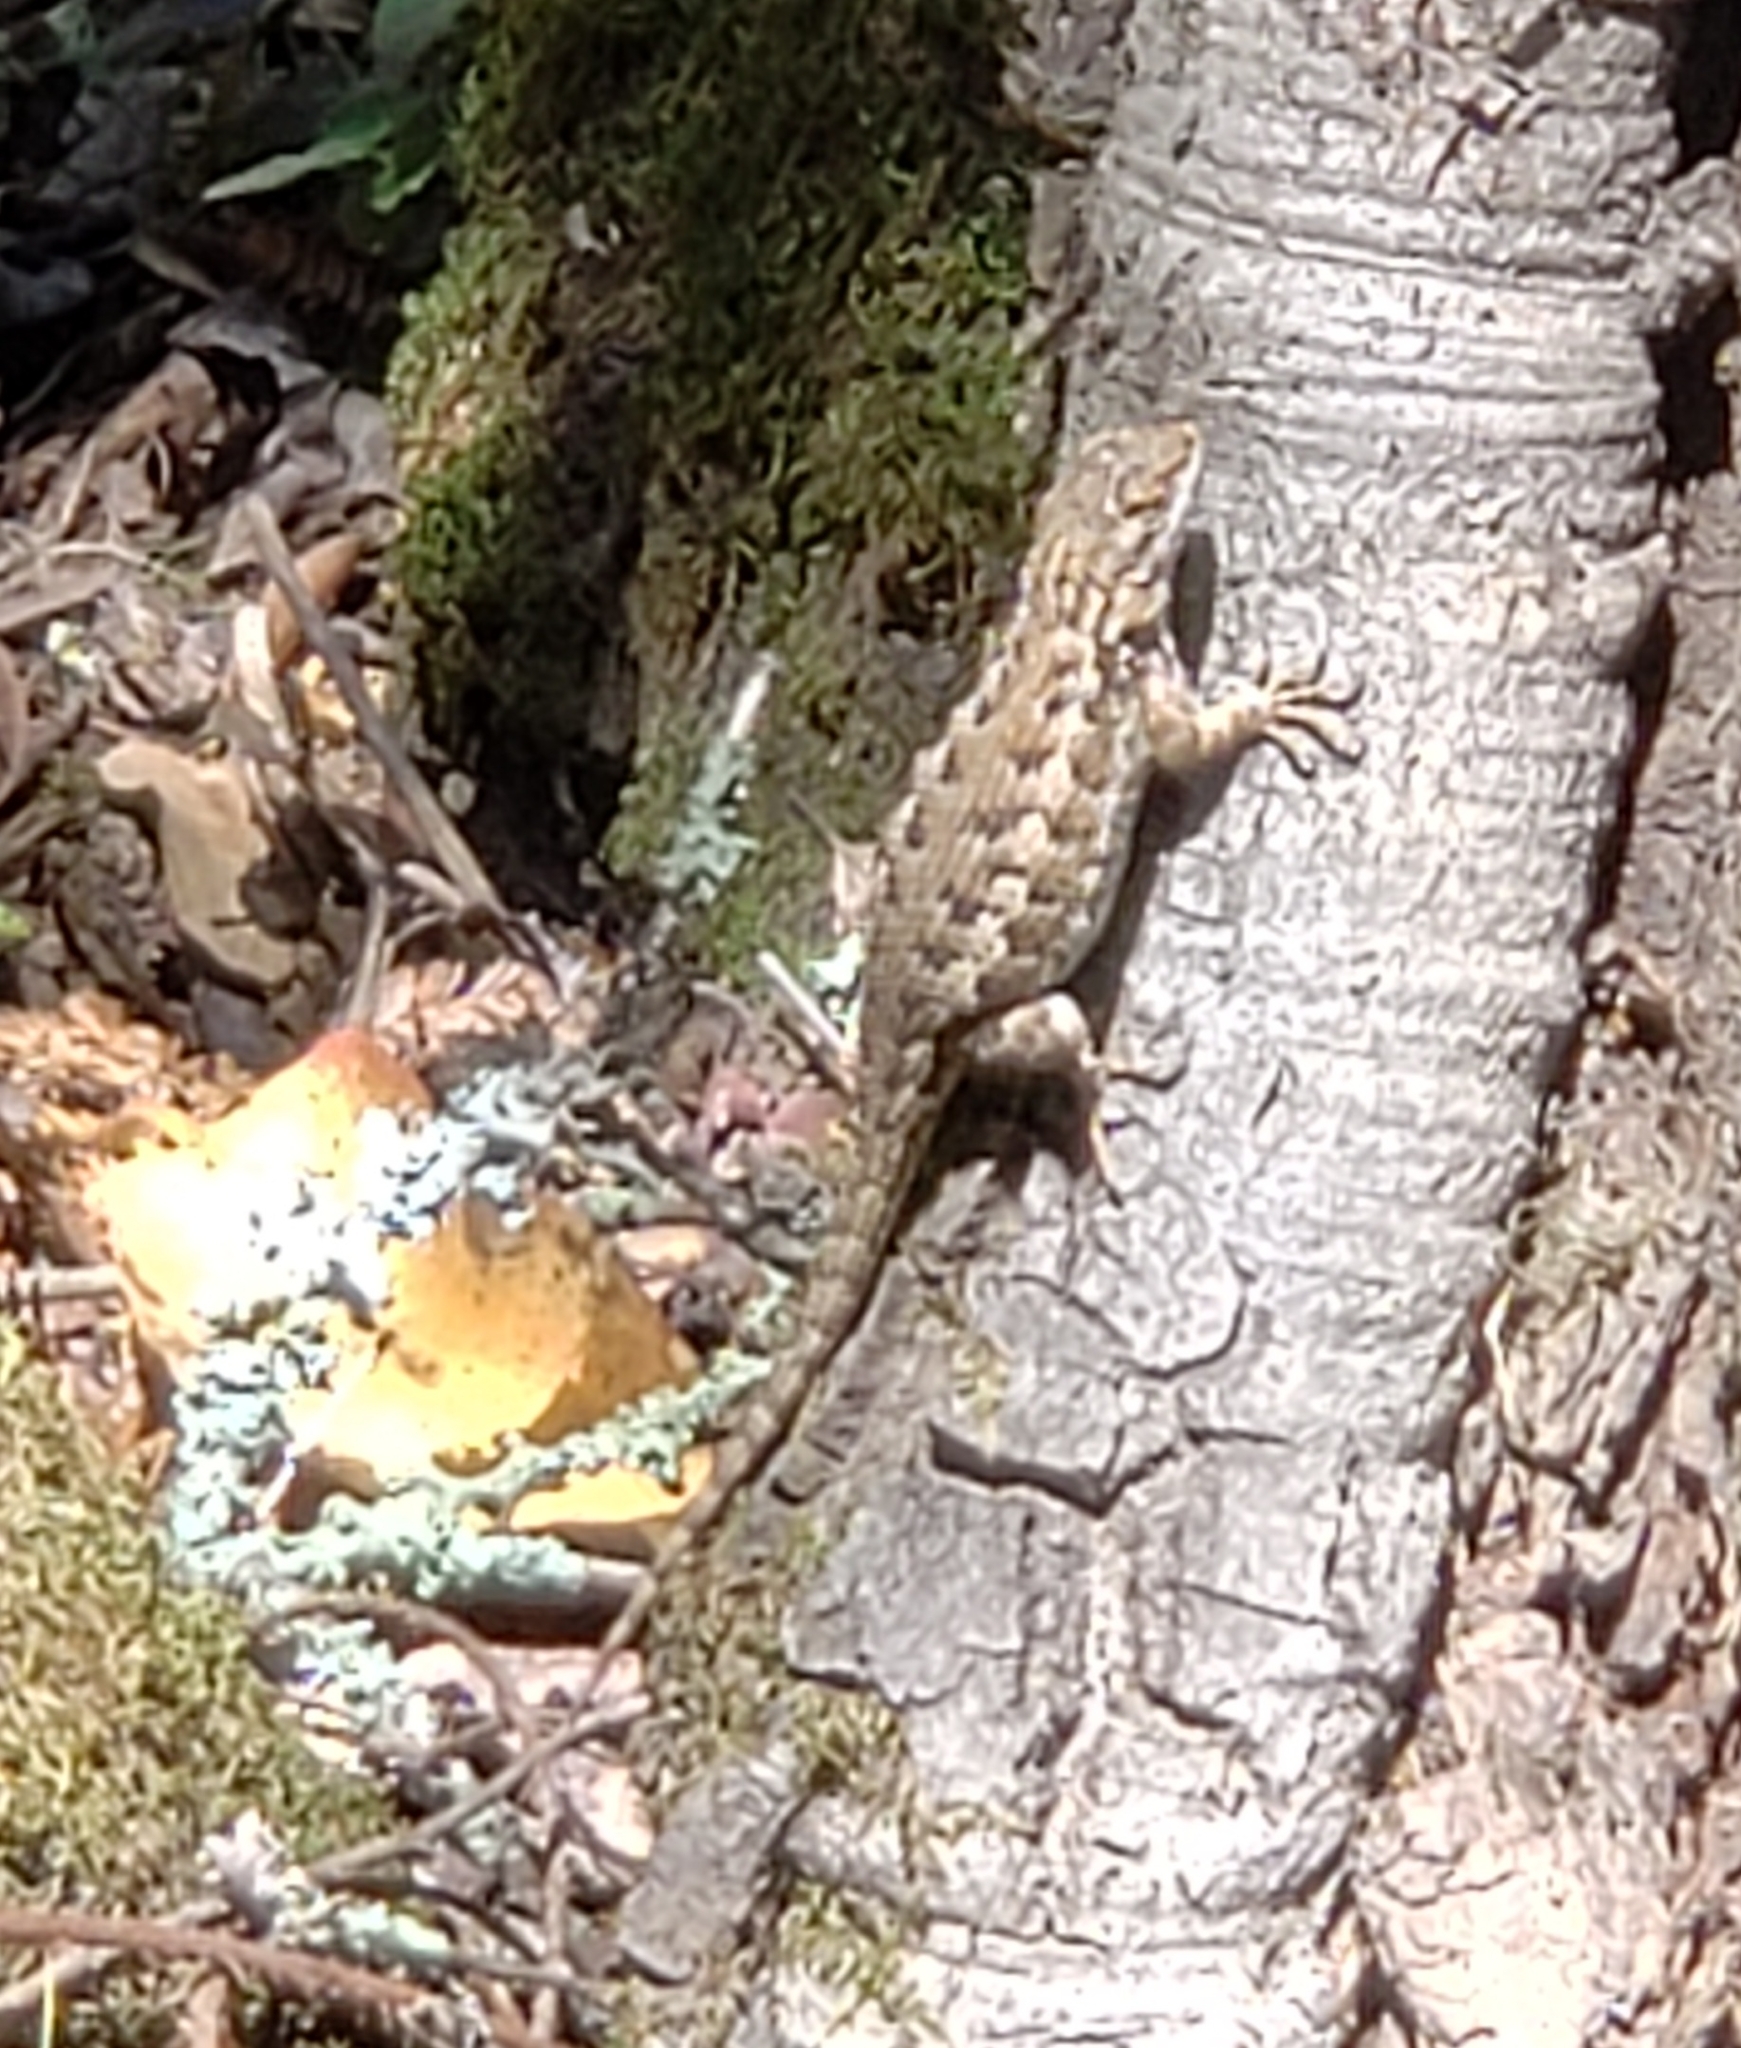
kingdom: Animalia
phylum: Chordata
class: Squamata
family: Phrynosomatidae
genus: Sceloporus
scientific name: Sceloporus occidentalis
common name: Western fence lizard
